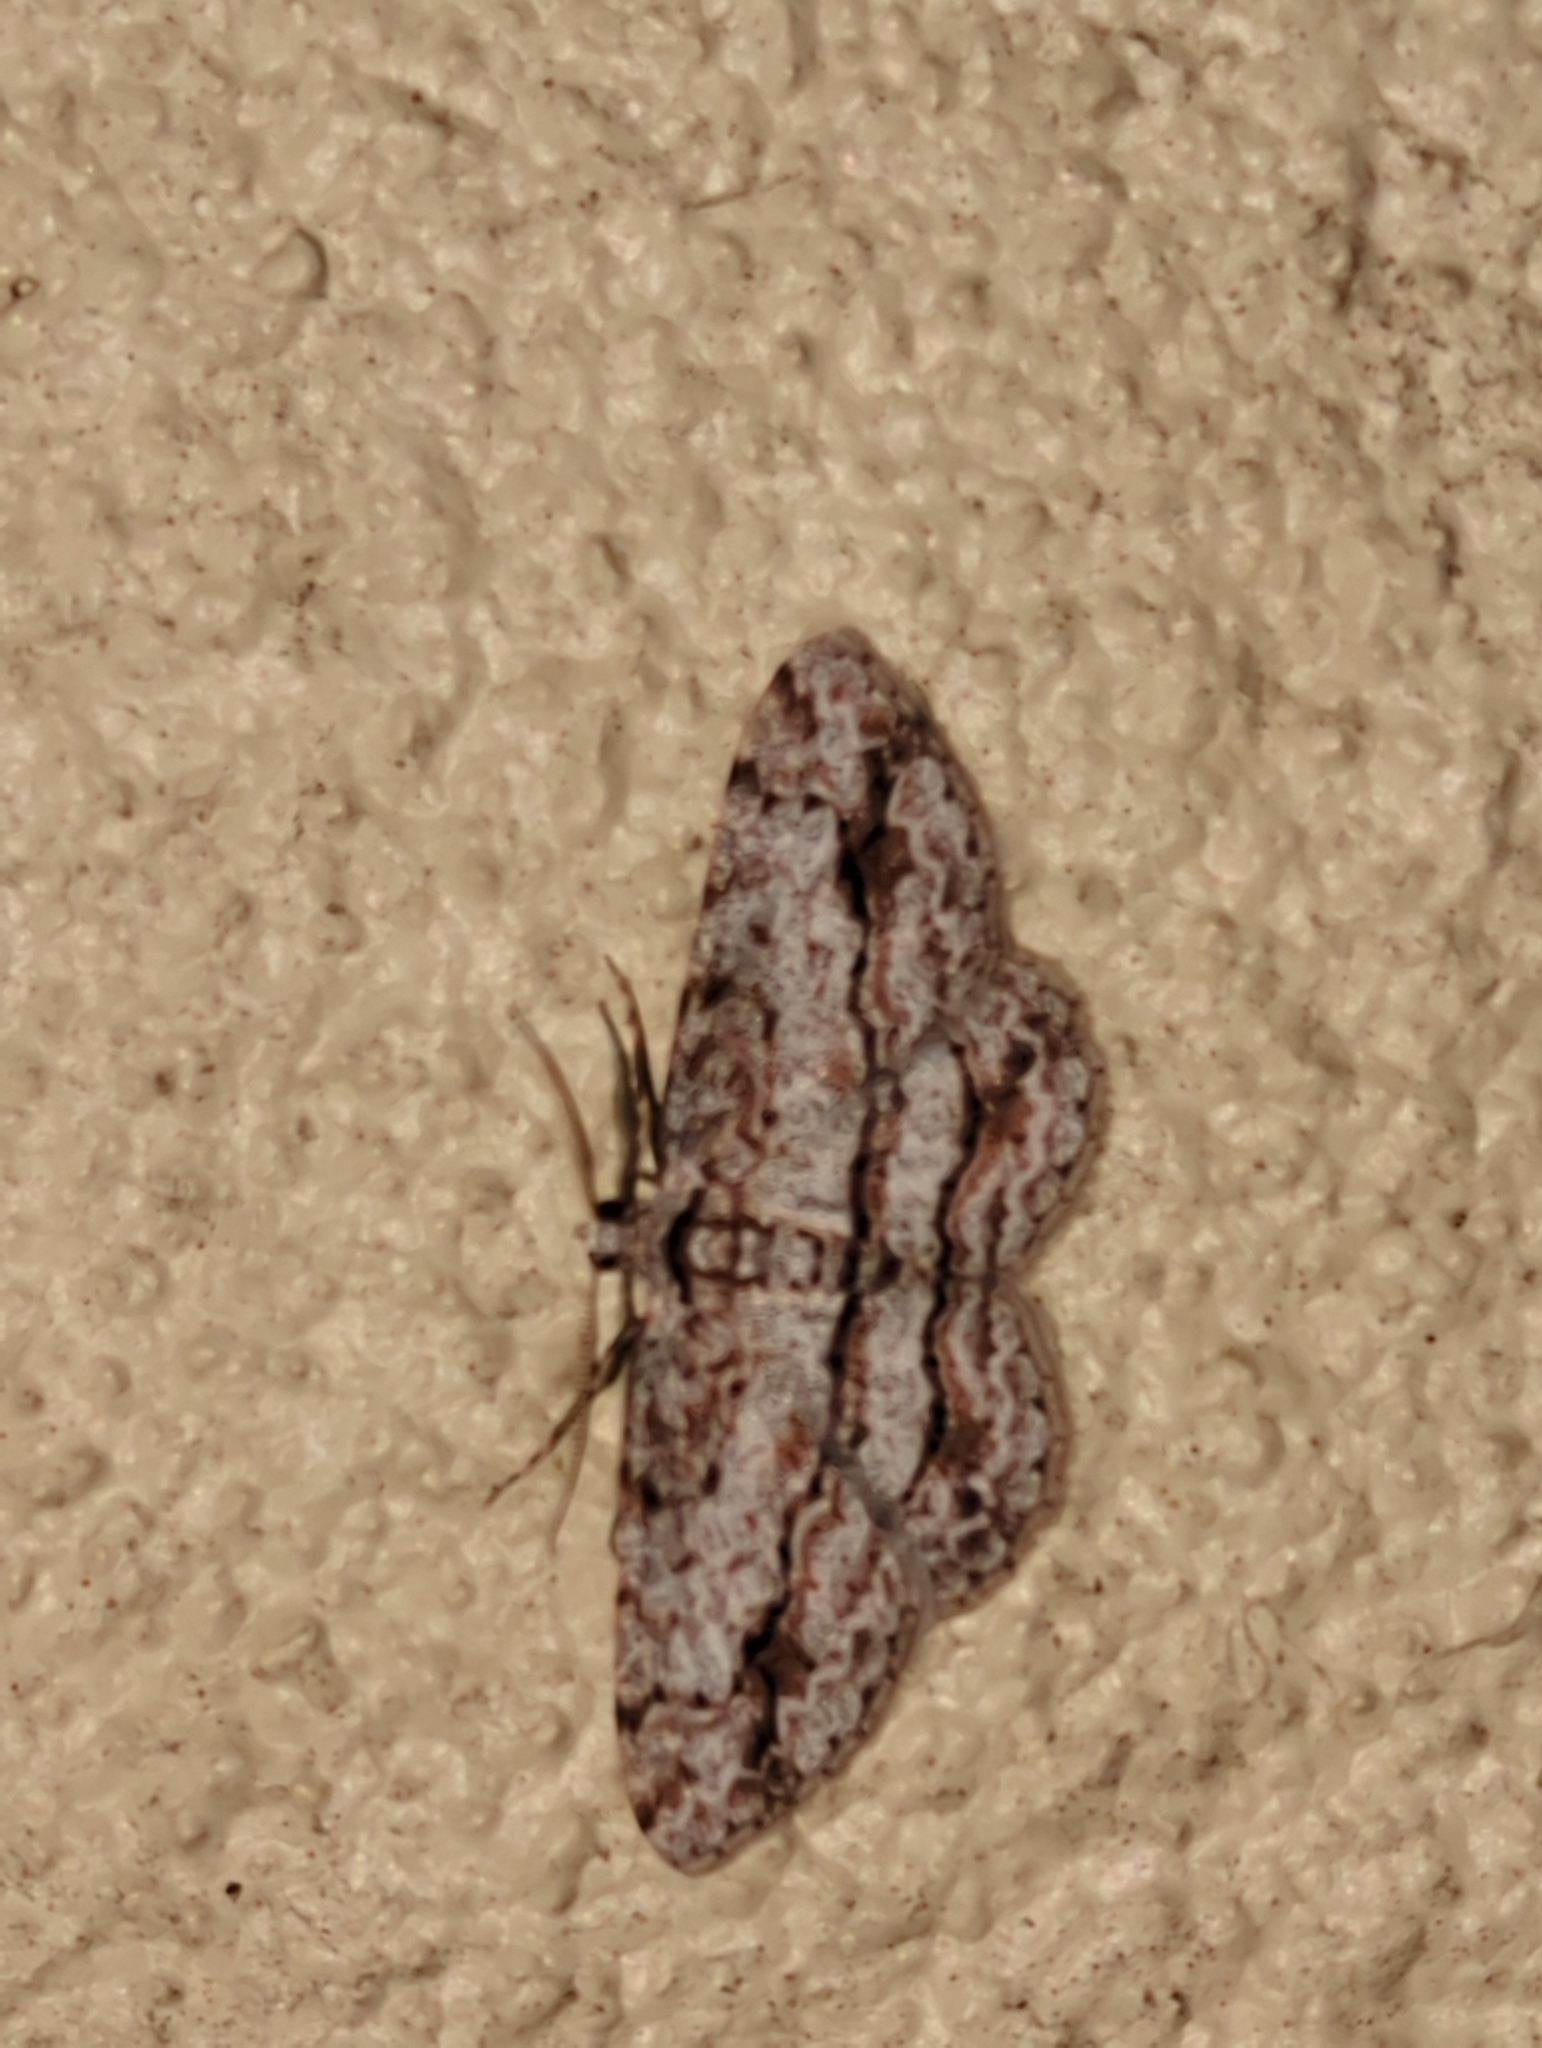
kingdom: Animalia
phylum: Arthropoda
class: Insecta
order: Lepidoptera
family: Geometridae
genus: Didymoctenia
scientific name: Didymoctenia exsuperata
